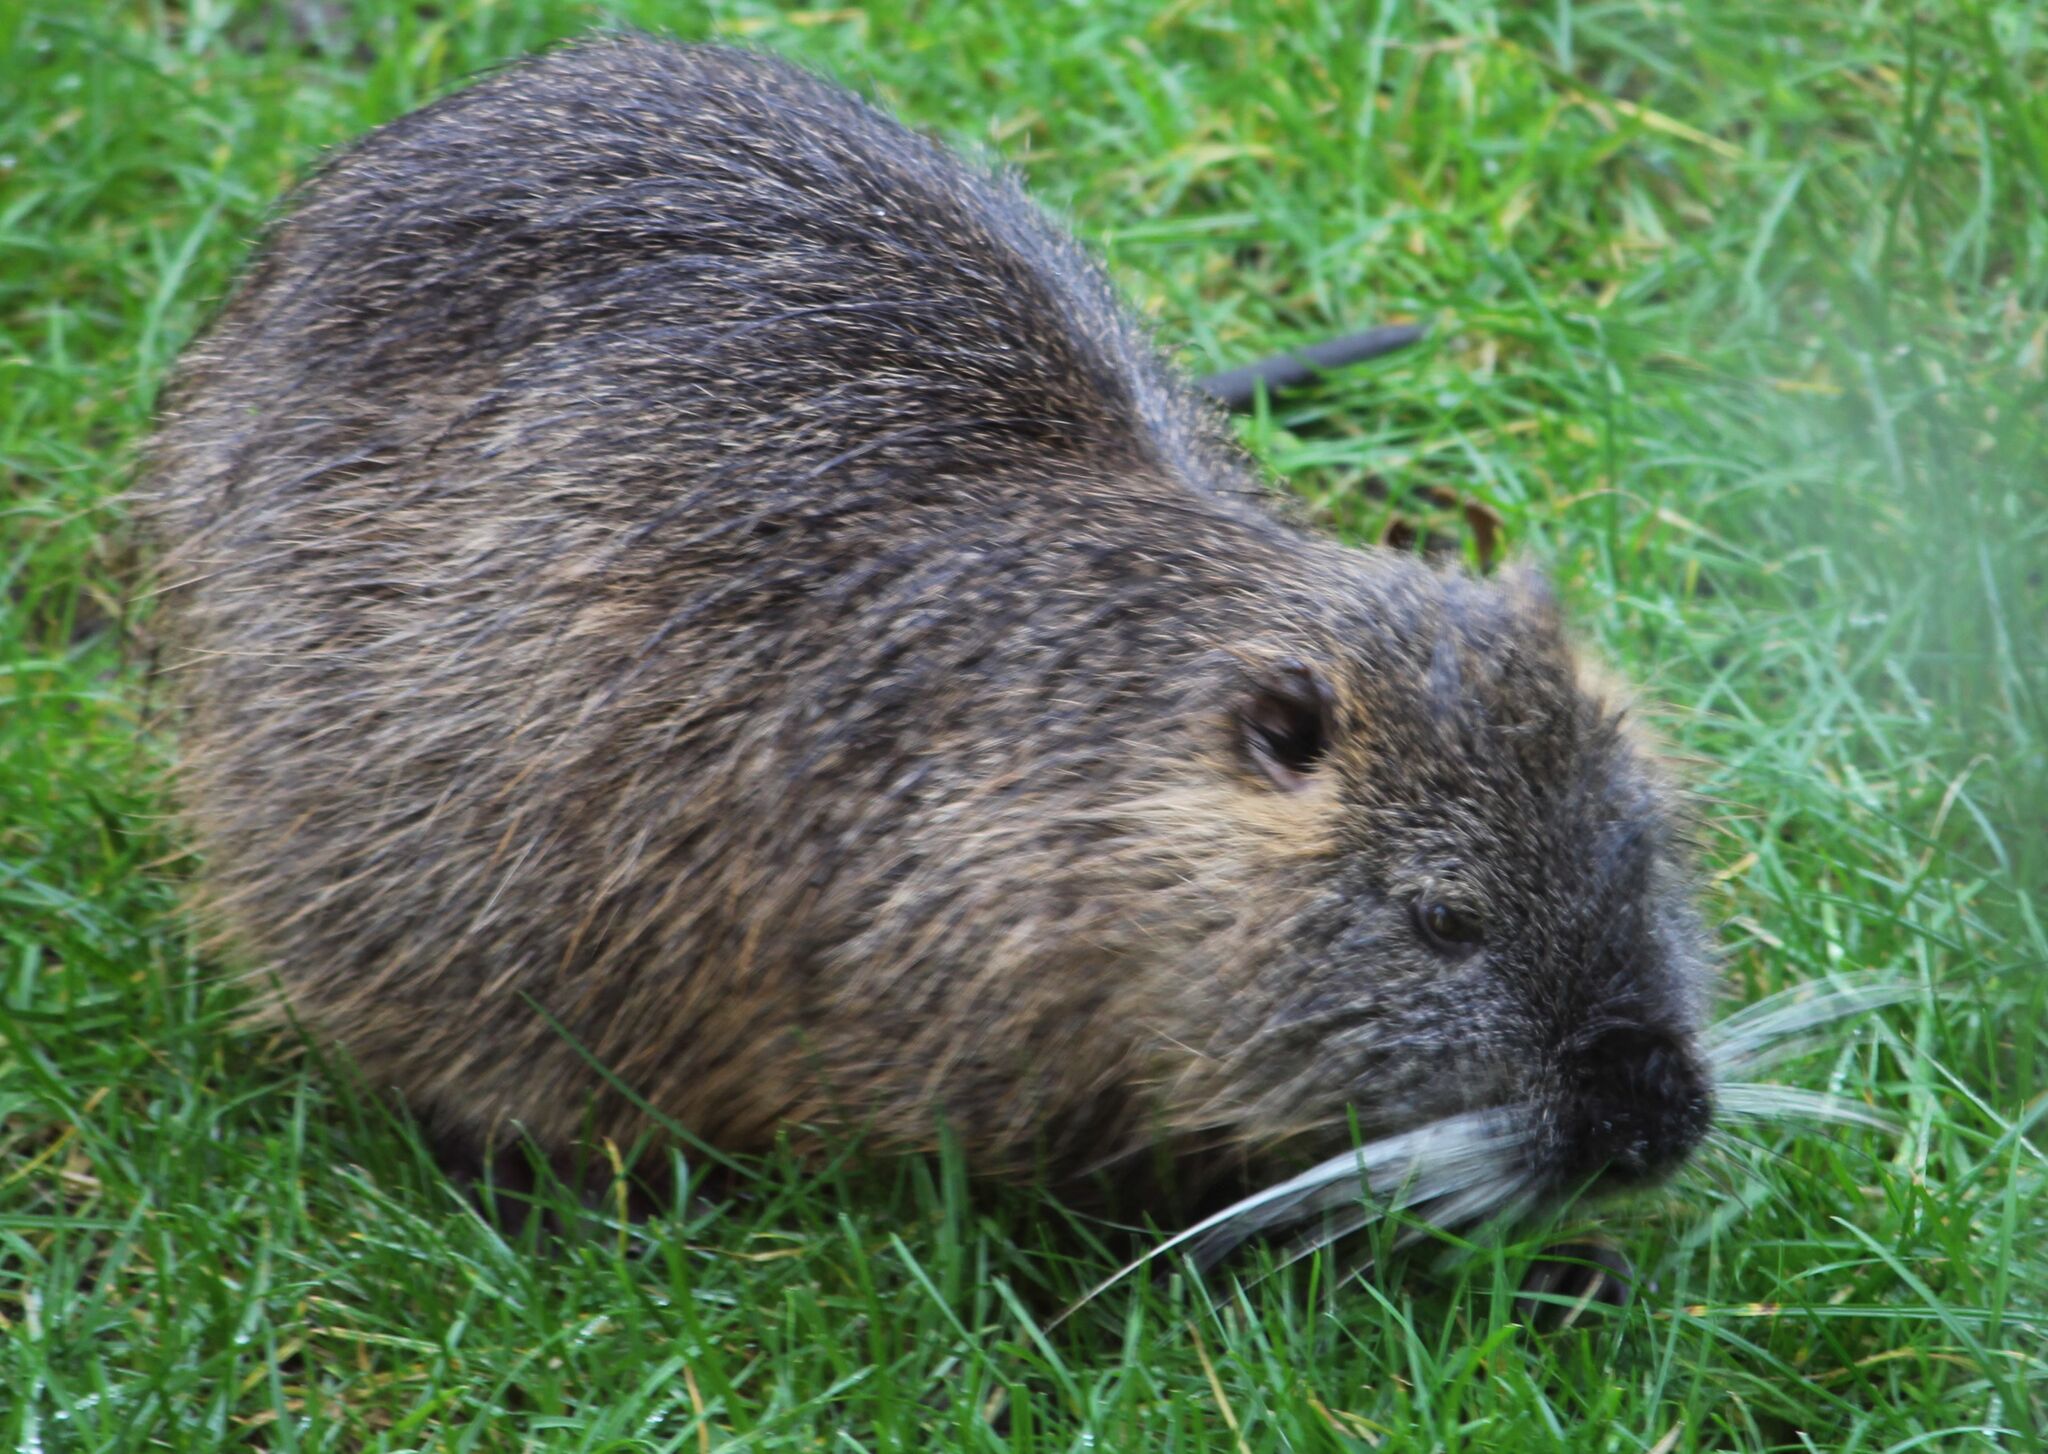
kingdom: Animalia
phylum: Chordata
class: Mammalia
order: Rodentia
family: Myocastoridae
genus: Myocastor
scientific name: Myocastor coypus
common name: Coypu
